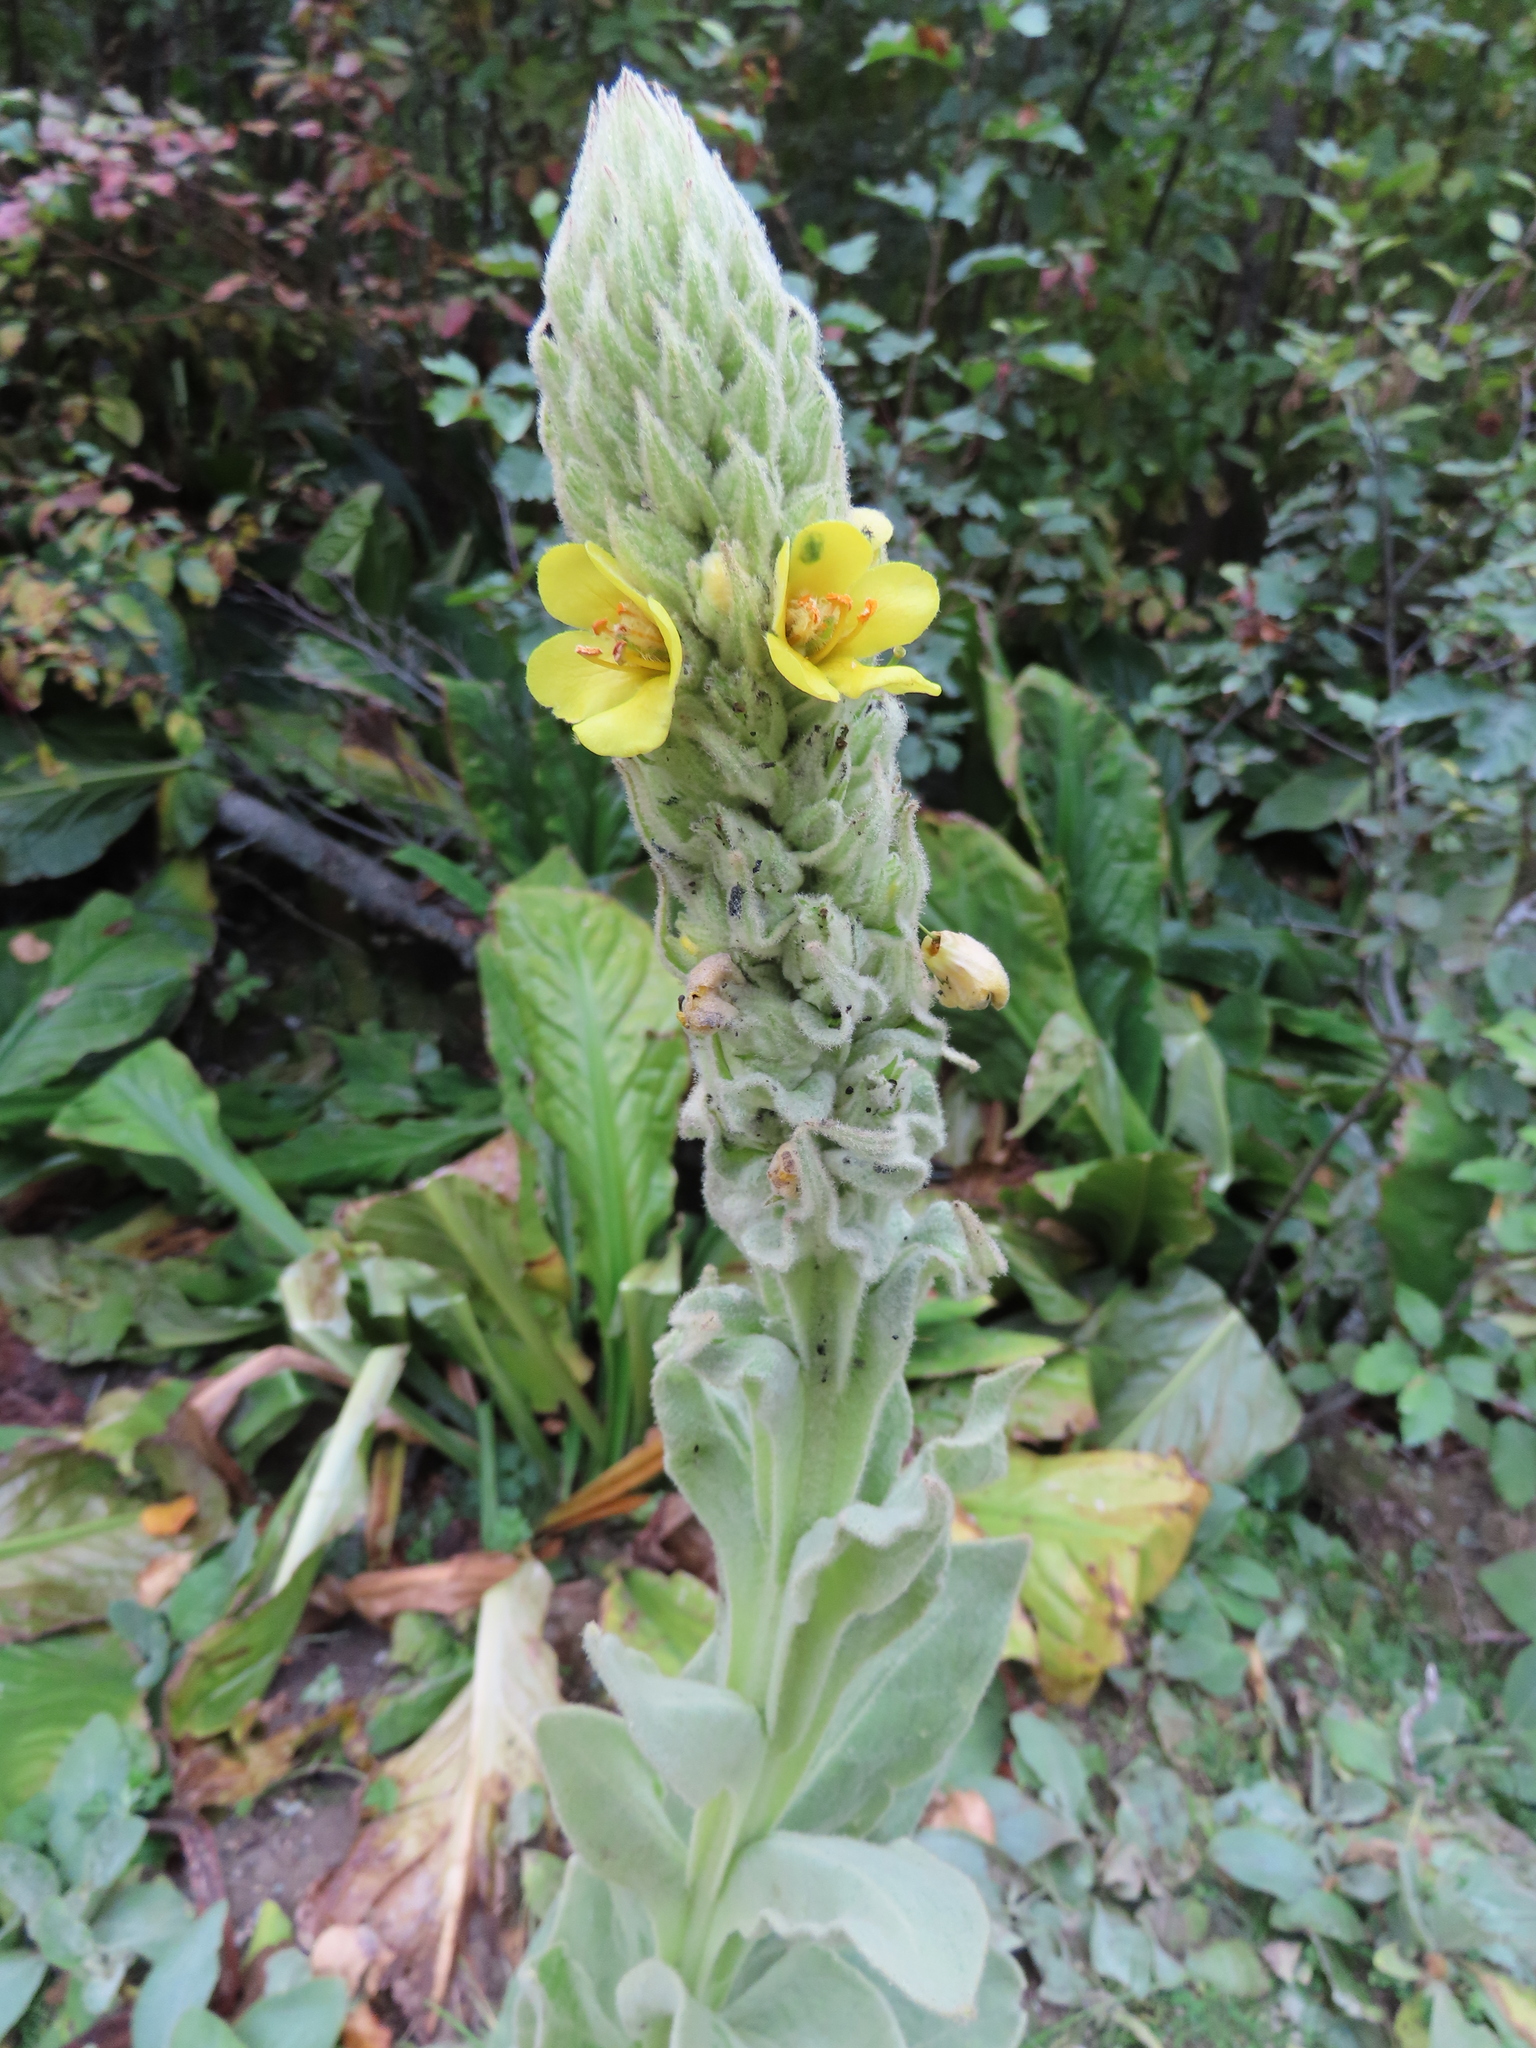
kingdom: Plantae
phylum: Tracheophyta
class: Magnoliopsida
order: Lamiales
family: Scrophulariaceae
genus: Verbascum
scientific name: Verbascum thapsus
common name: Common mullein
